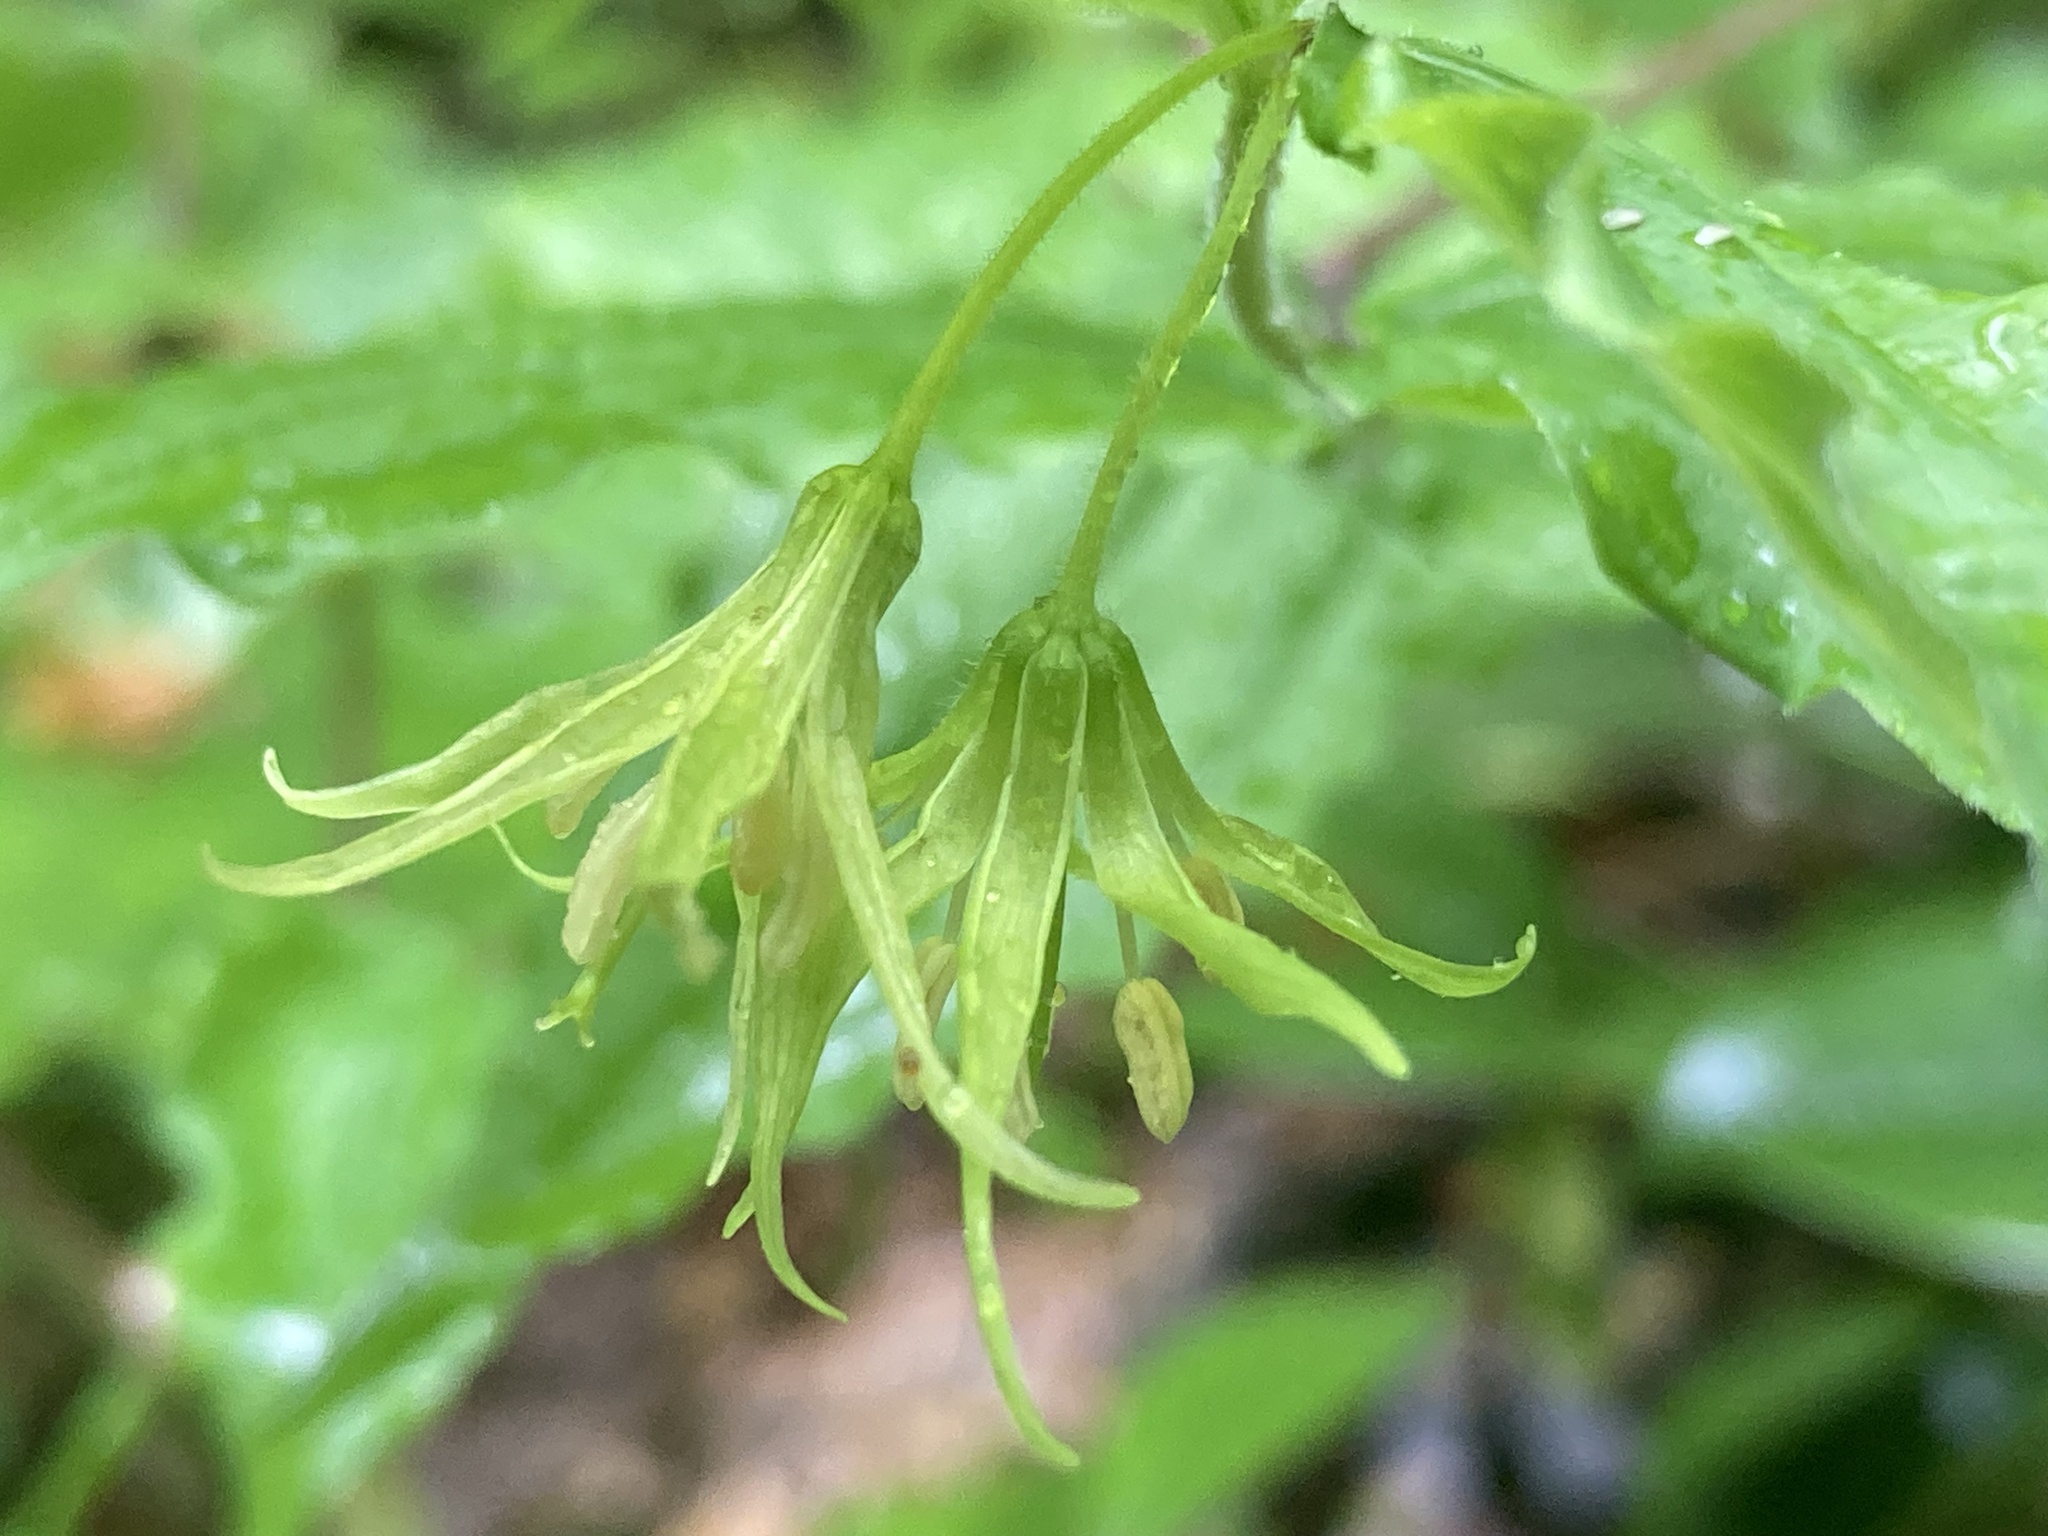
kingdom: Plantae
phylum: Tracheophyta
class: Liliopsida
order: Liliales
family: Liliaceae
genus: Prosartes
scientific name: Prosartes lanuginosa
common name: Hairy mandarin
